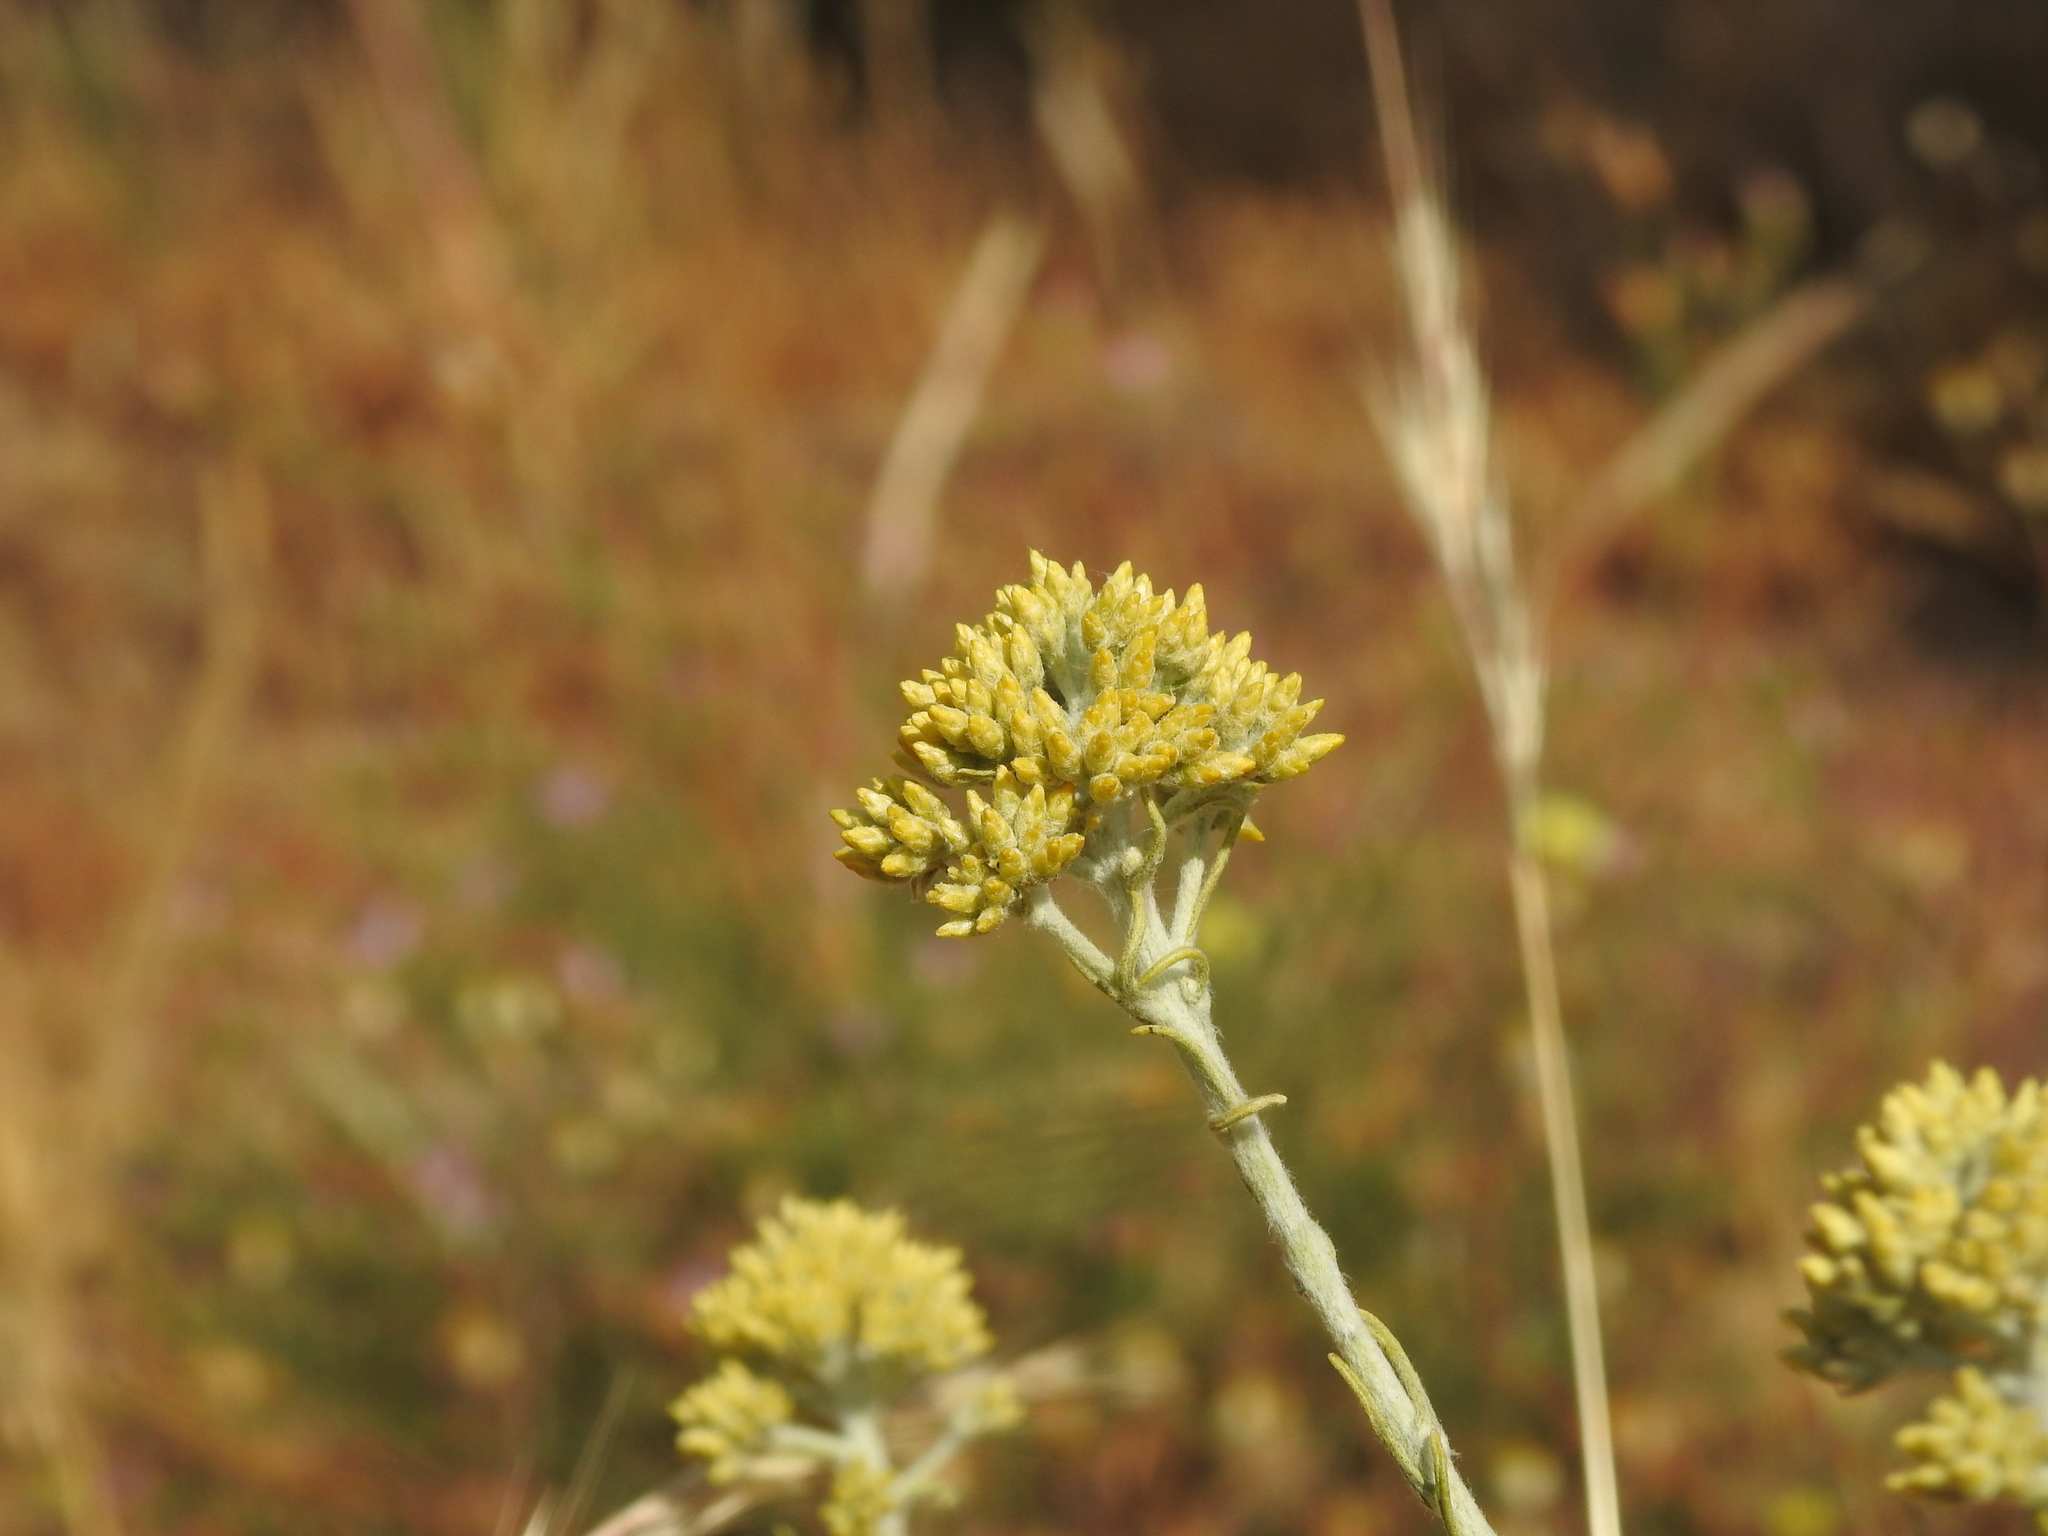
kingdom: Plantae
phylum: Tracheophyta
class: Magnoliopsida
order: Asterales
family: Asteraceae
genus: Helichrysum
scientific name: Helichrysum serotinum
